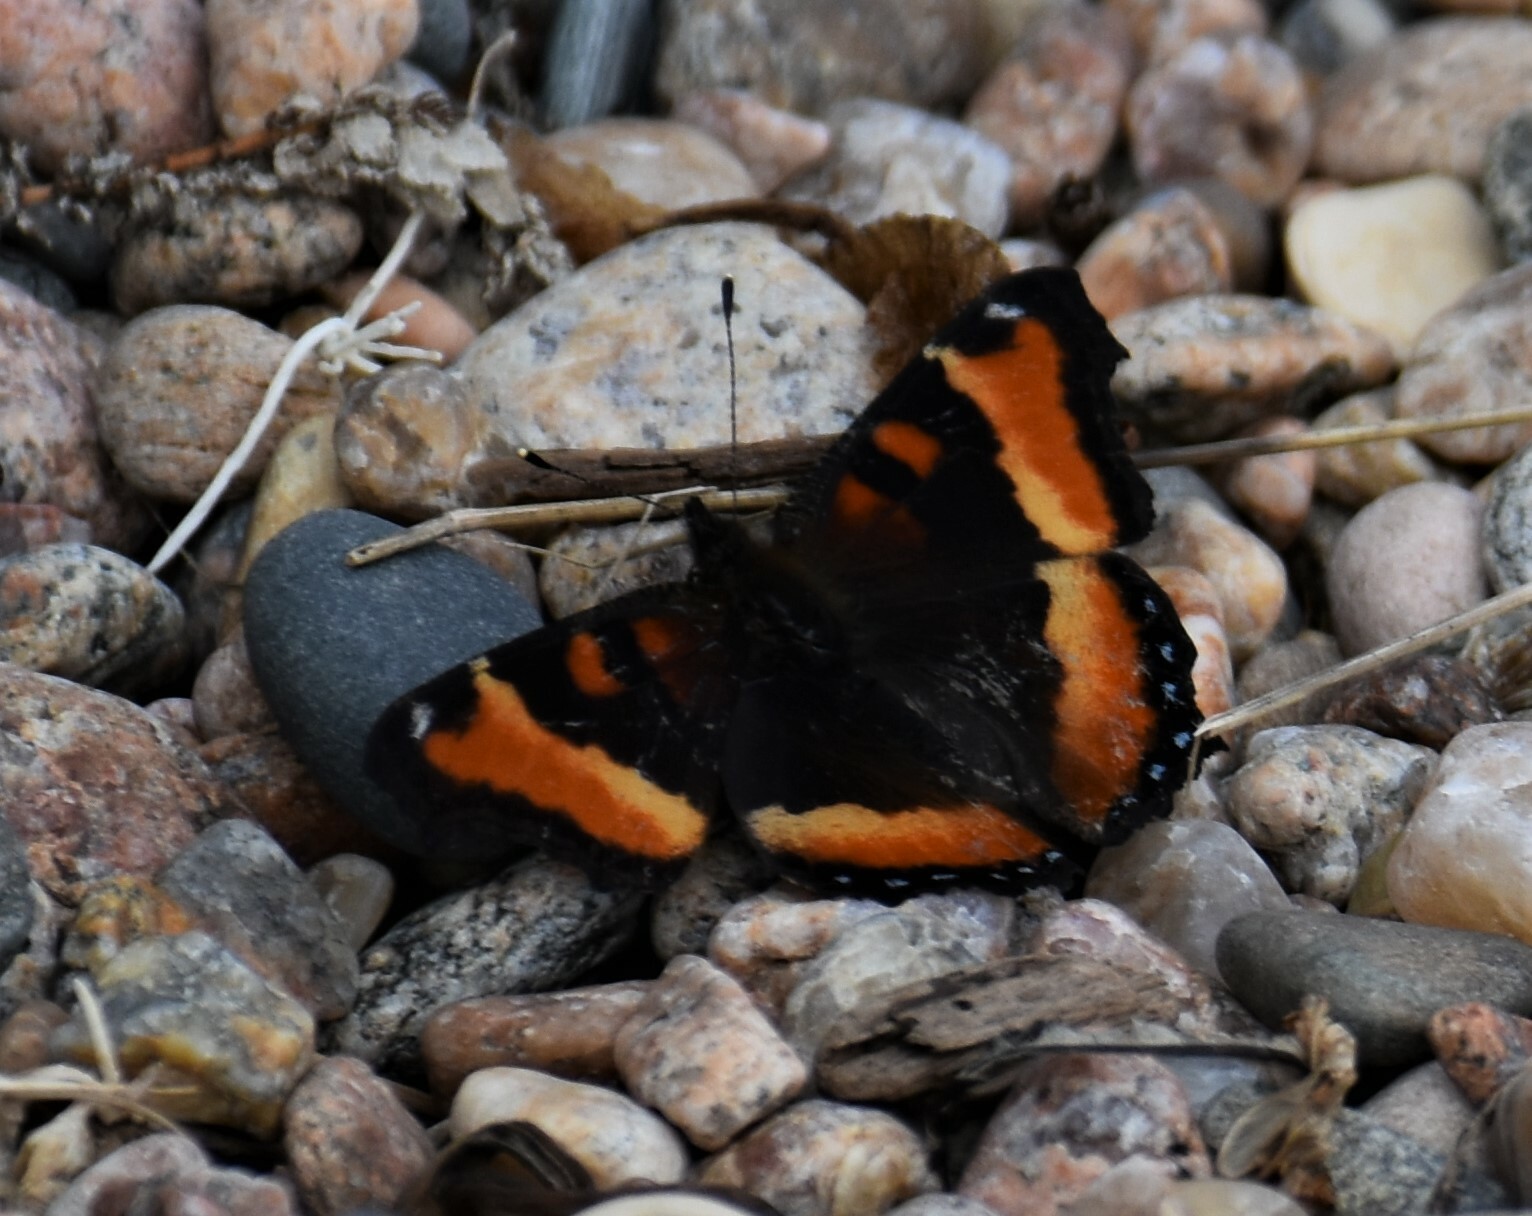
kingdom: Animalia
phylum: Arthropoda
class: Insecta
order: Lepidoptera
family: Nymphalidae
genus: Aglais
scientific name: Aglais milberti
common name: Milbert's tortoiseshell
